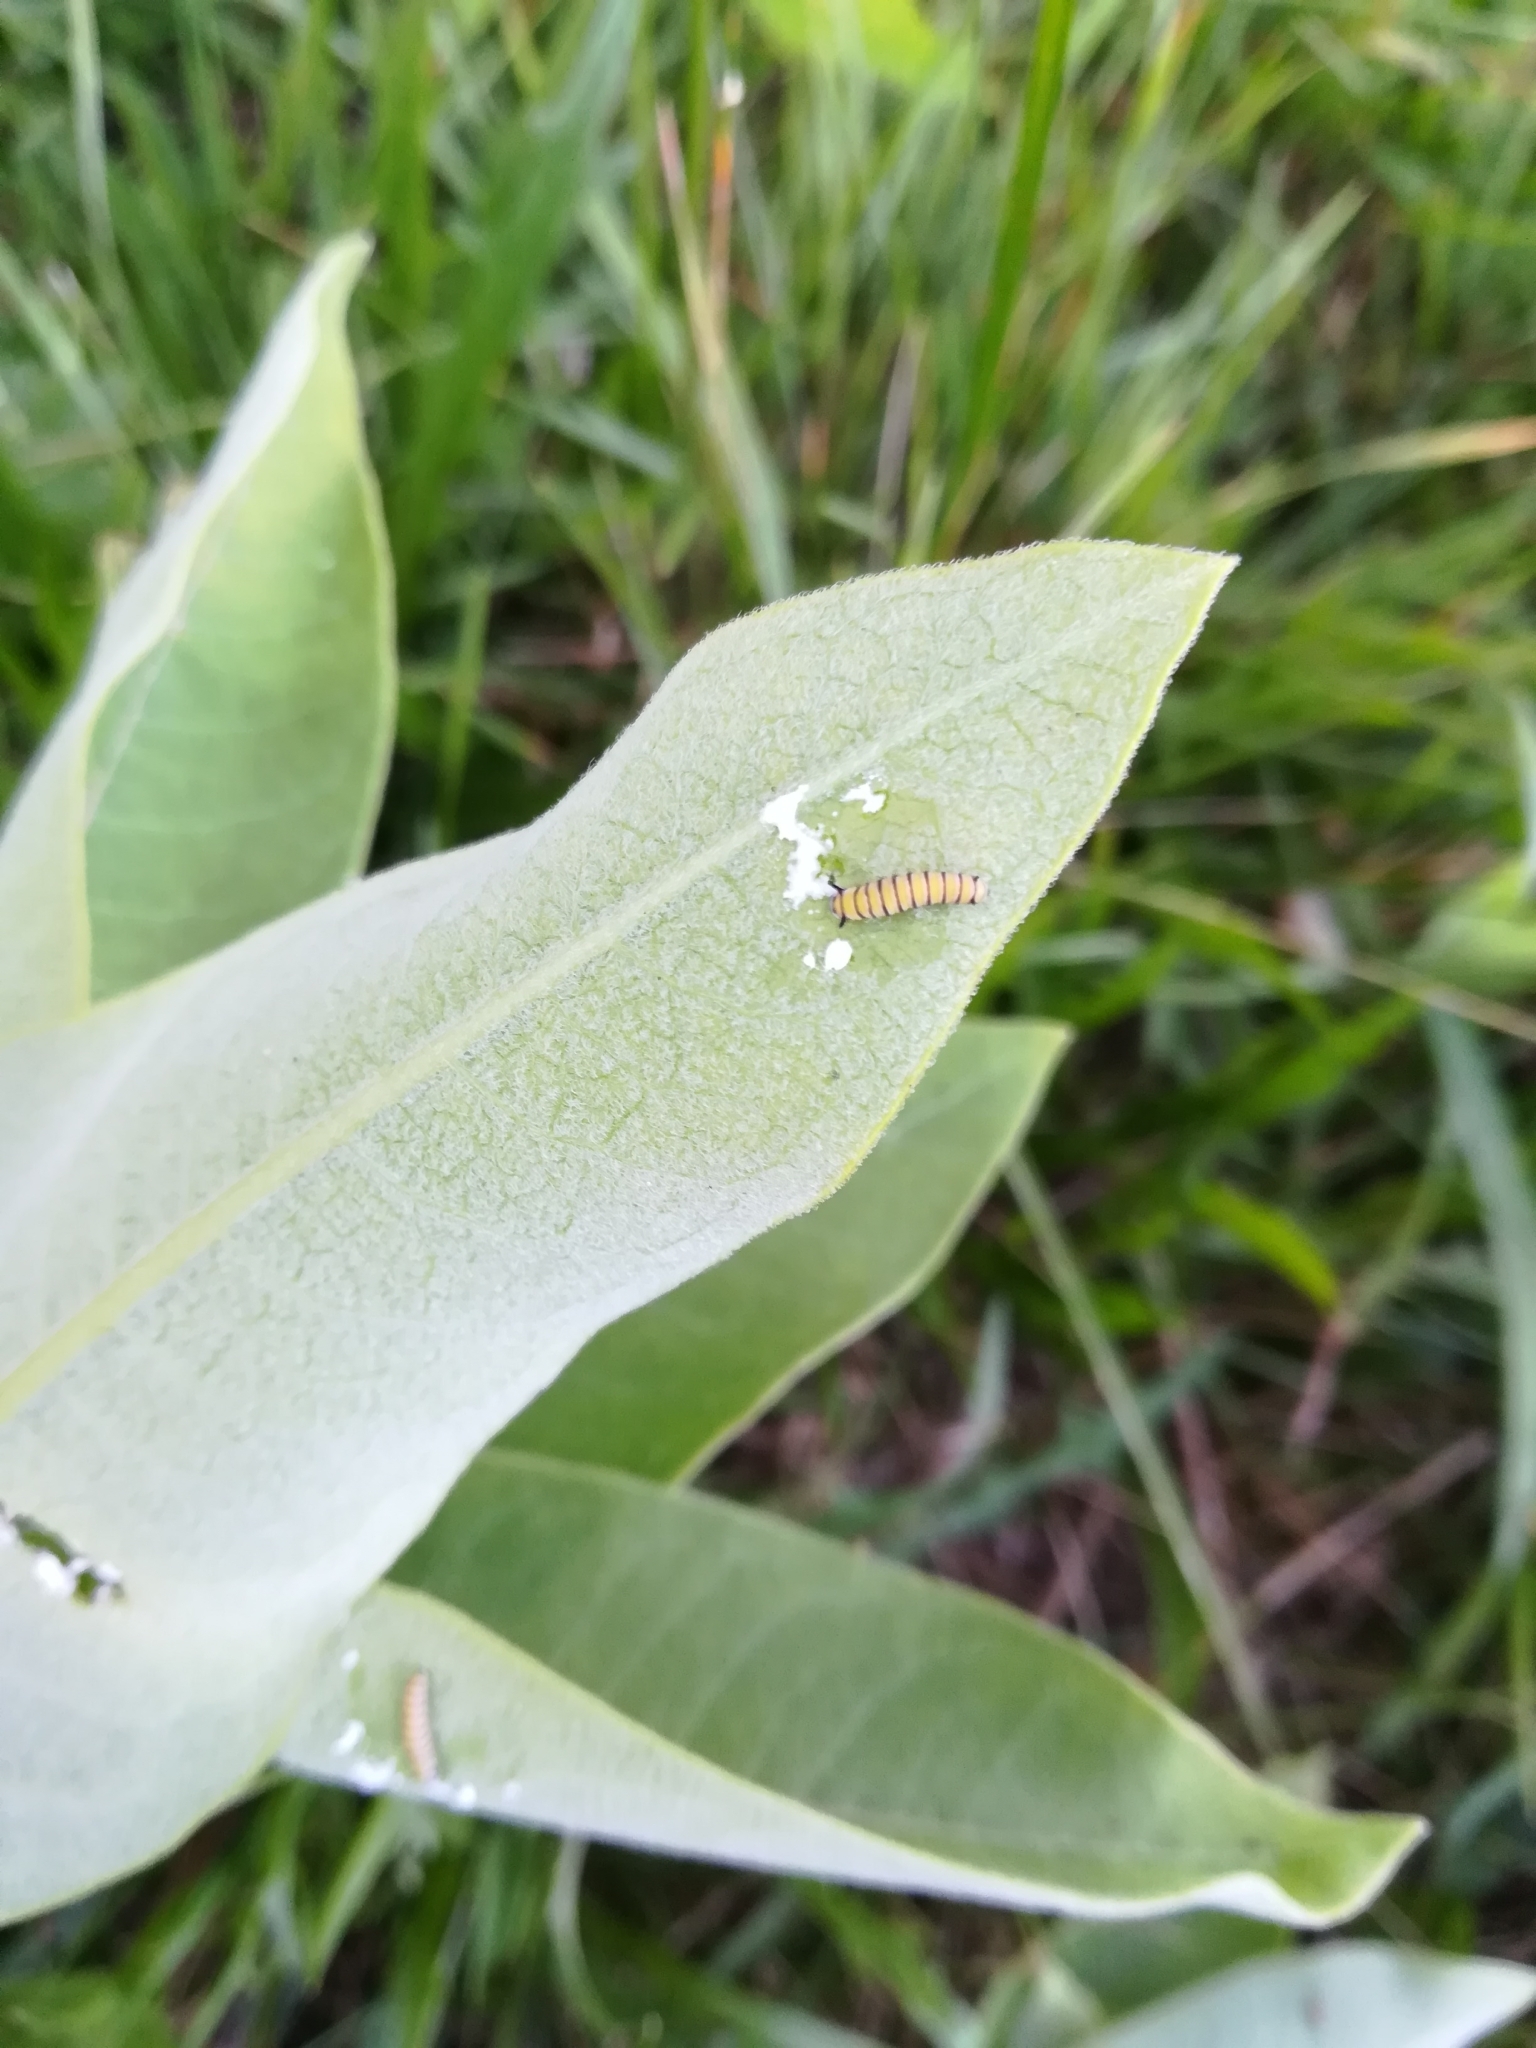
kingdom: Animalia
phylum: Arthropoda
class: Insecta
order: Lepidoptera
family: Nymphalidae
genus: Danaus
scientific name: Danaus plexippus
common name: Monarch
